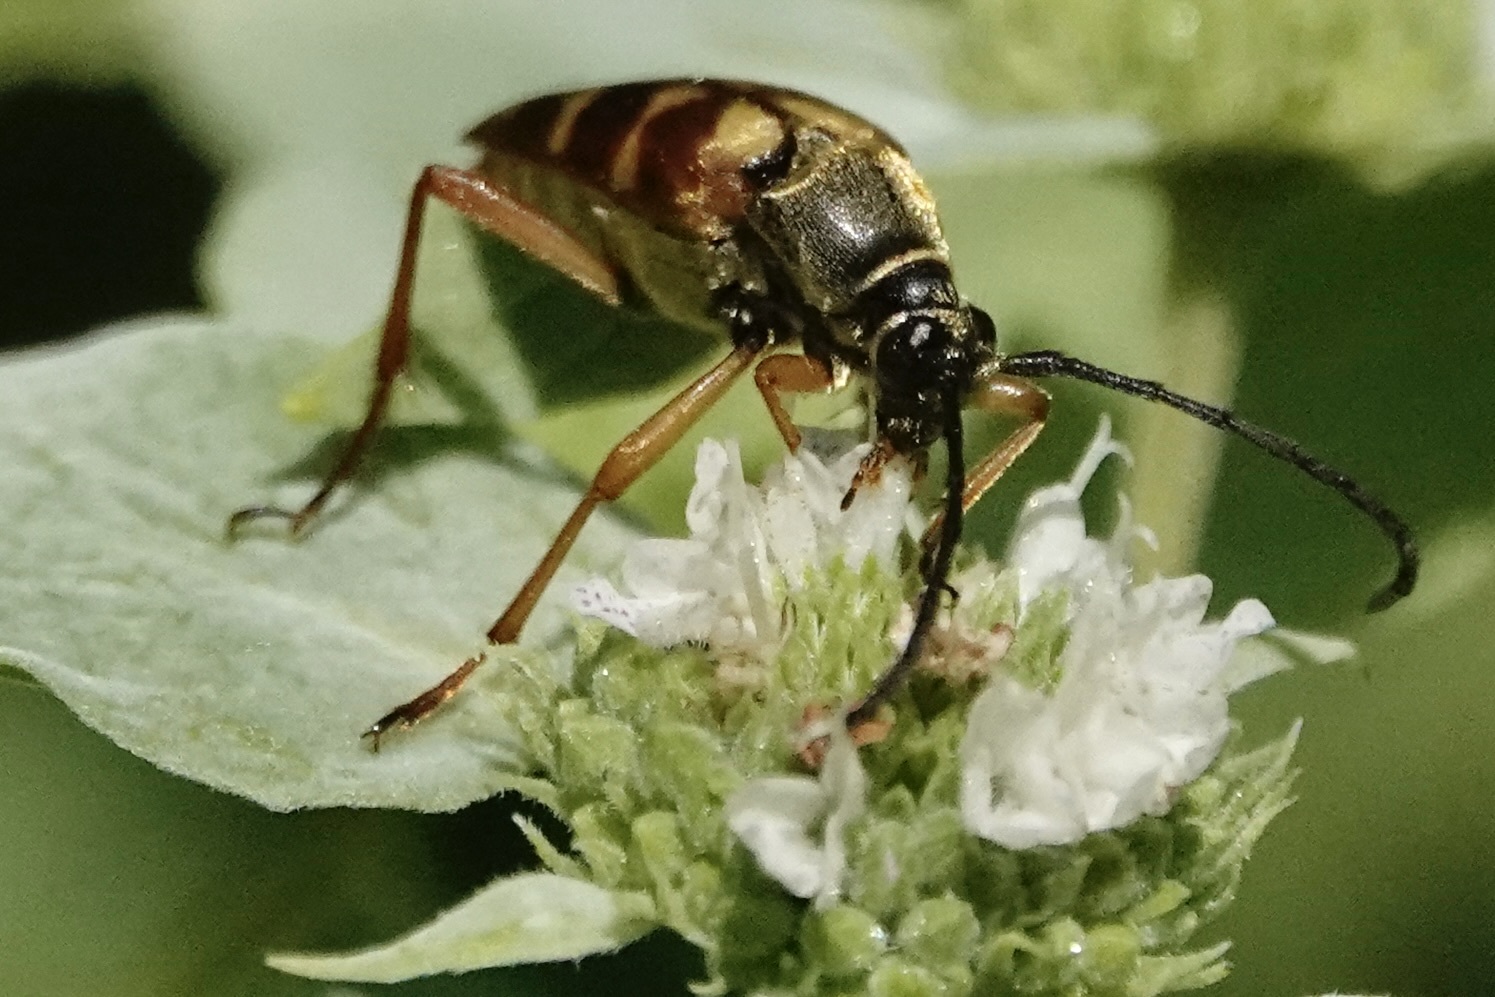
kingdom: Animalia
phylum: Arthropoda
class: Insecta
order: Coleoptera
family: Cerambycidae
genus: Typocerus
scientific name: Typocerus velutinus
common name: Banded longhorn beetle
